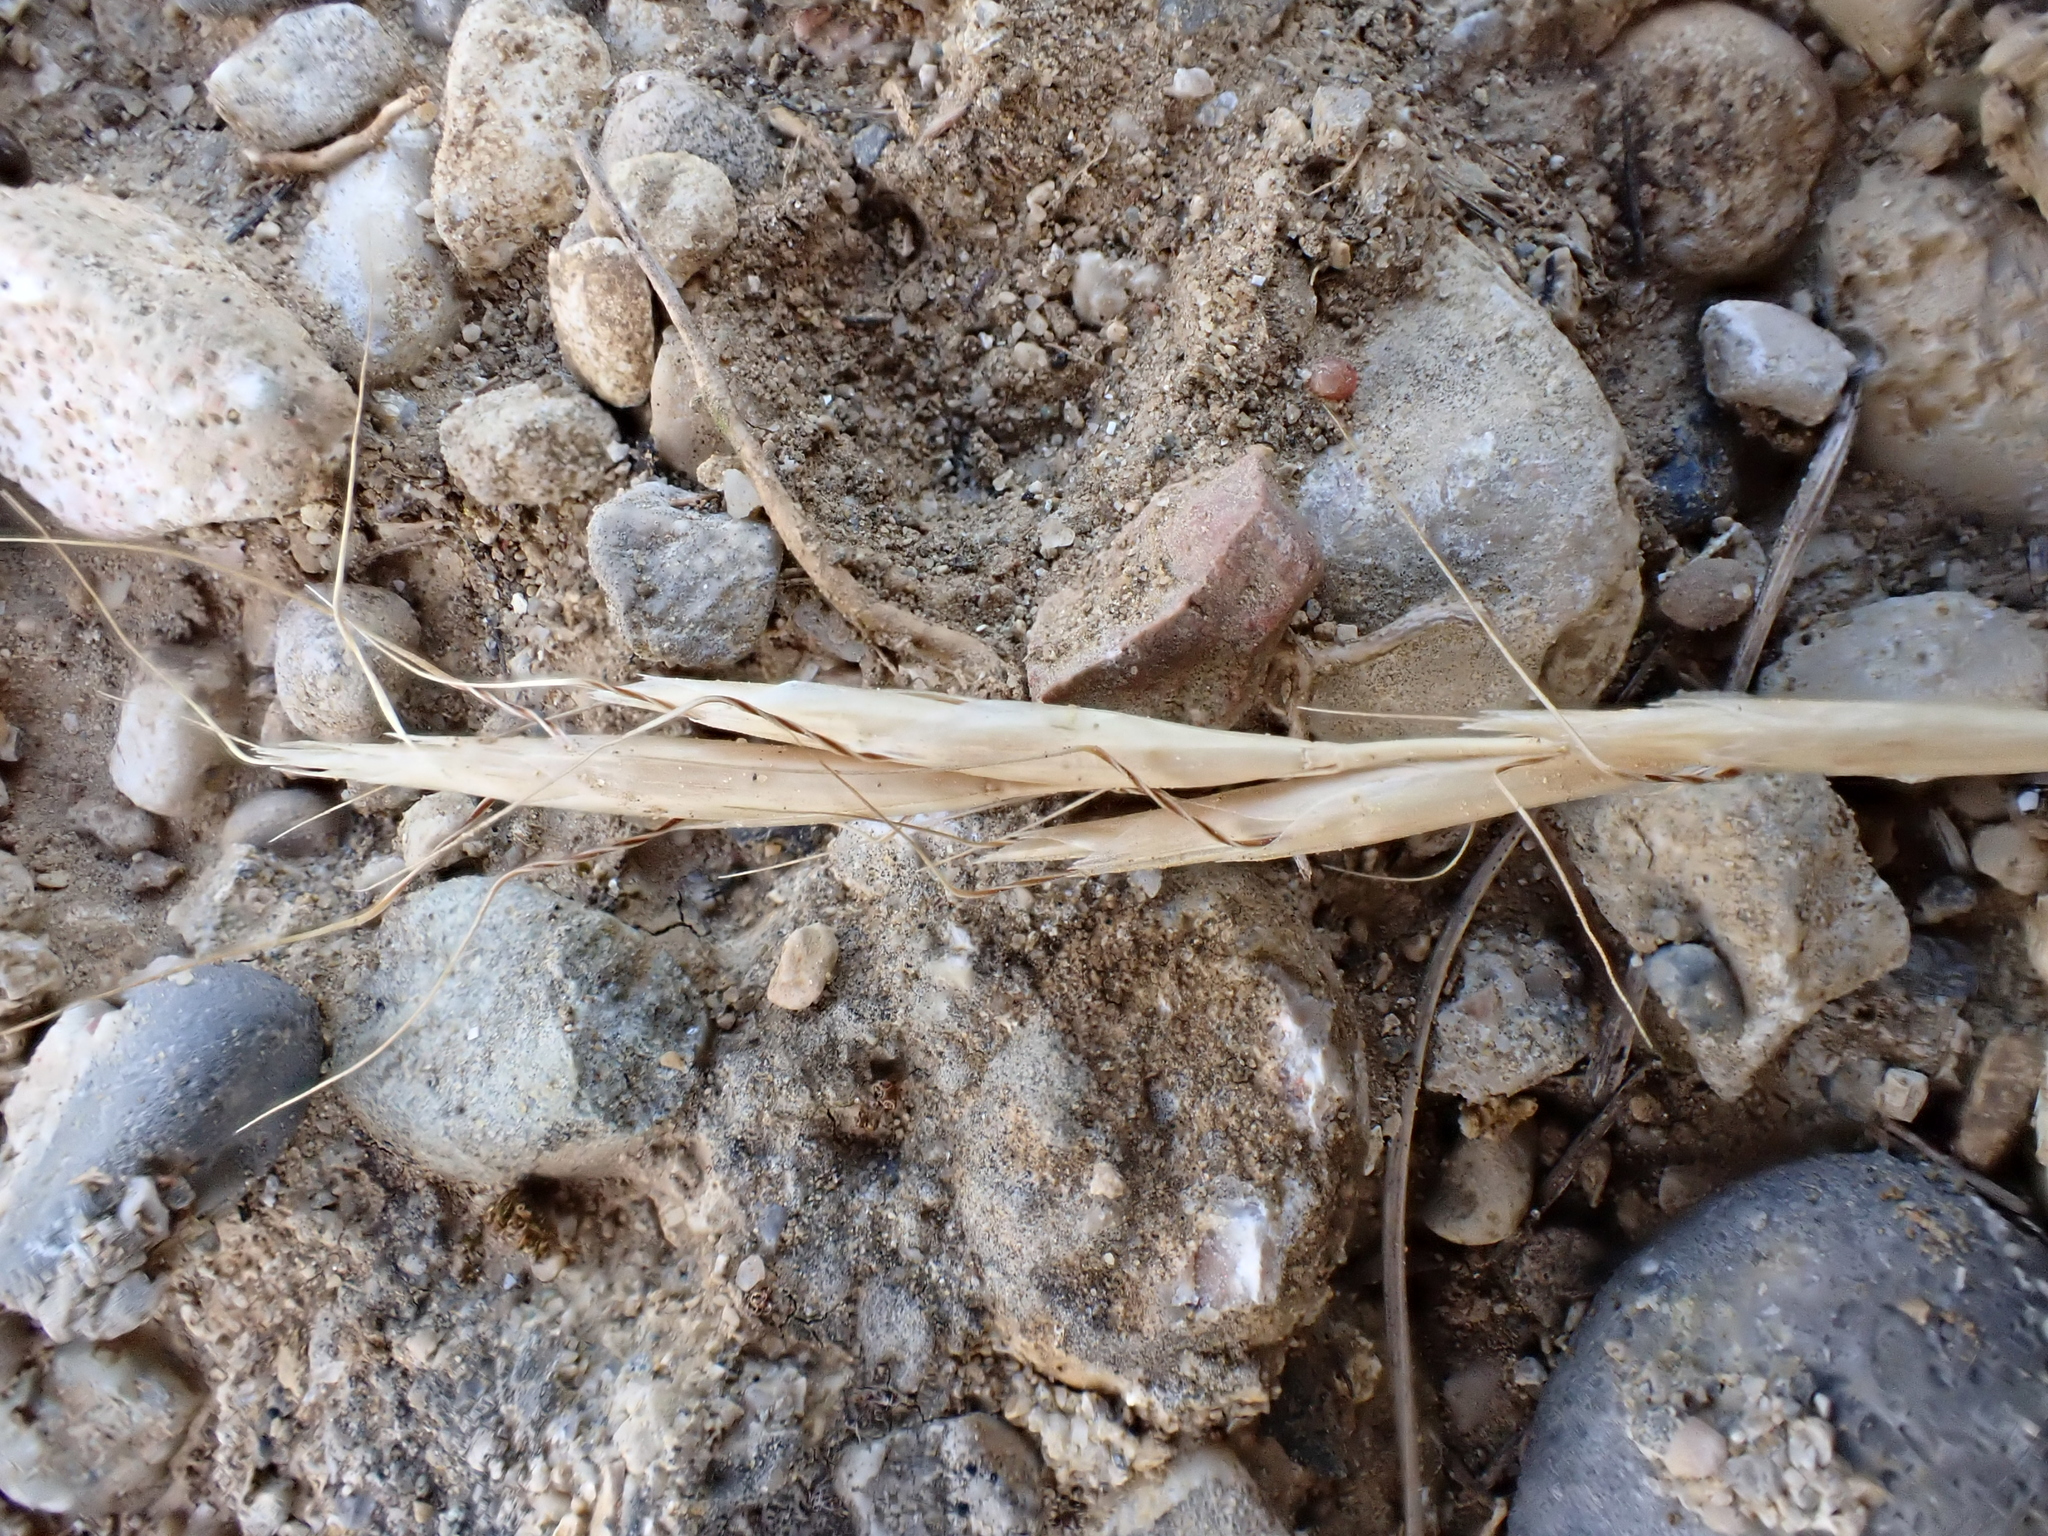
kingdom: Plantae
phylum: Tracheophyta
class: Liliopsida
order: Poales
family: Poaceae
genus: Helictochloa
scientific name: Helictochloa bromoides
